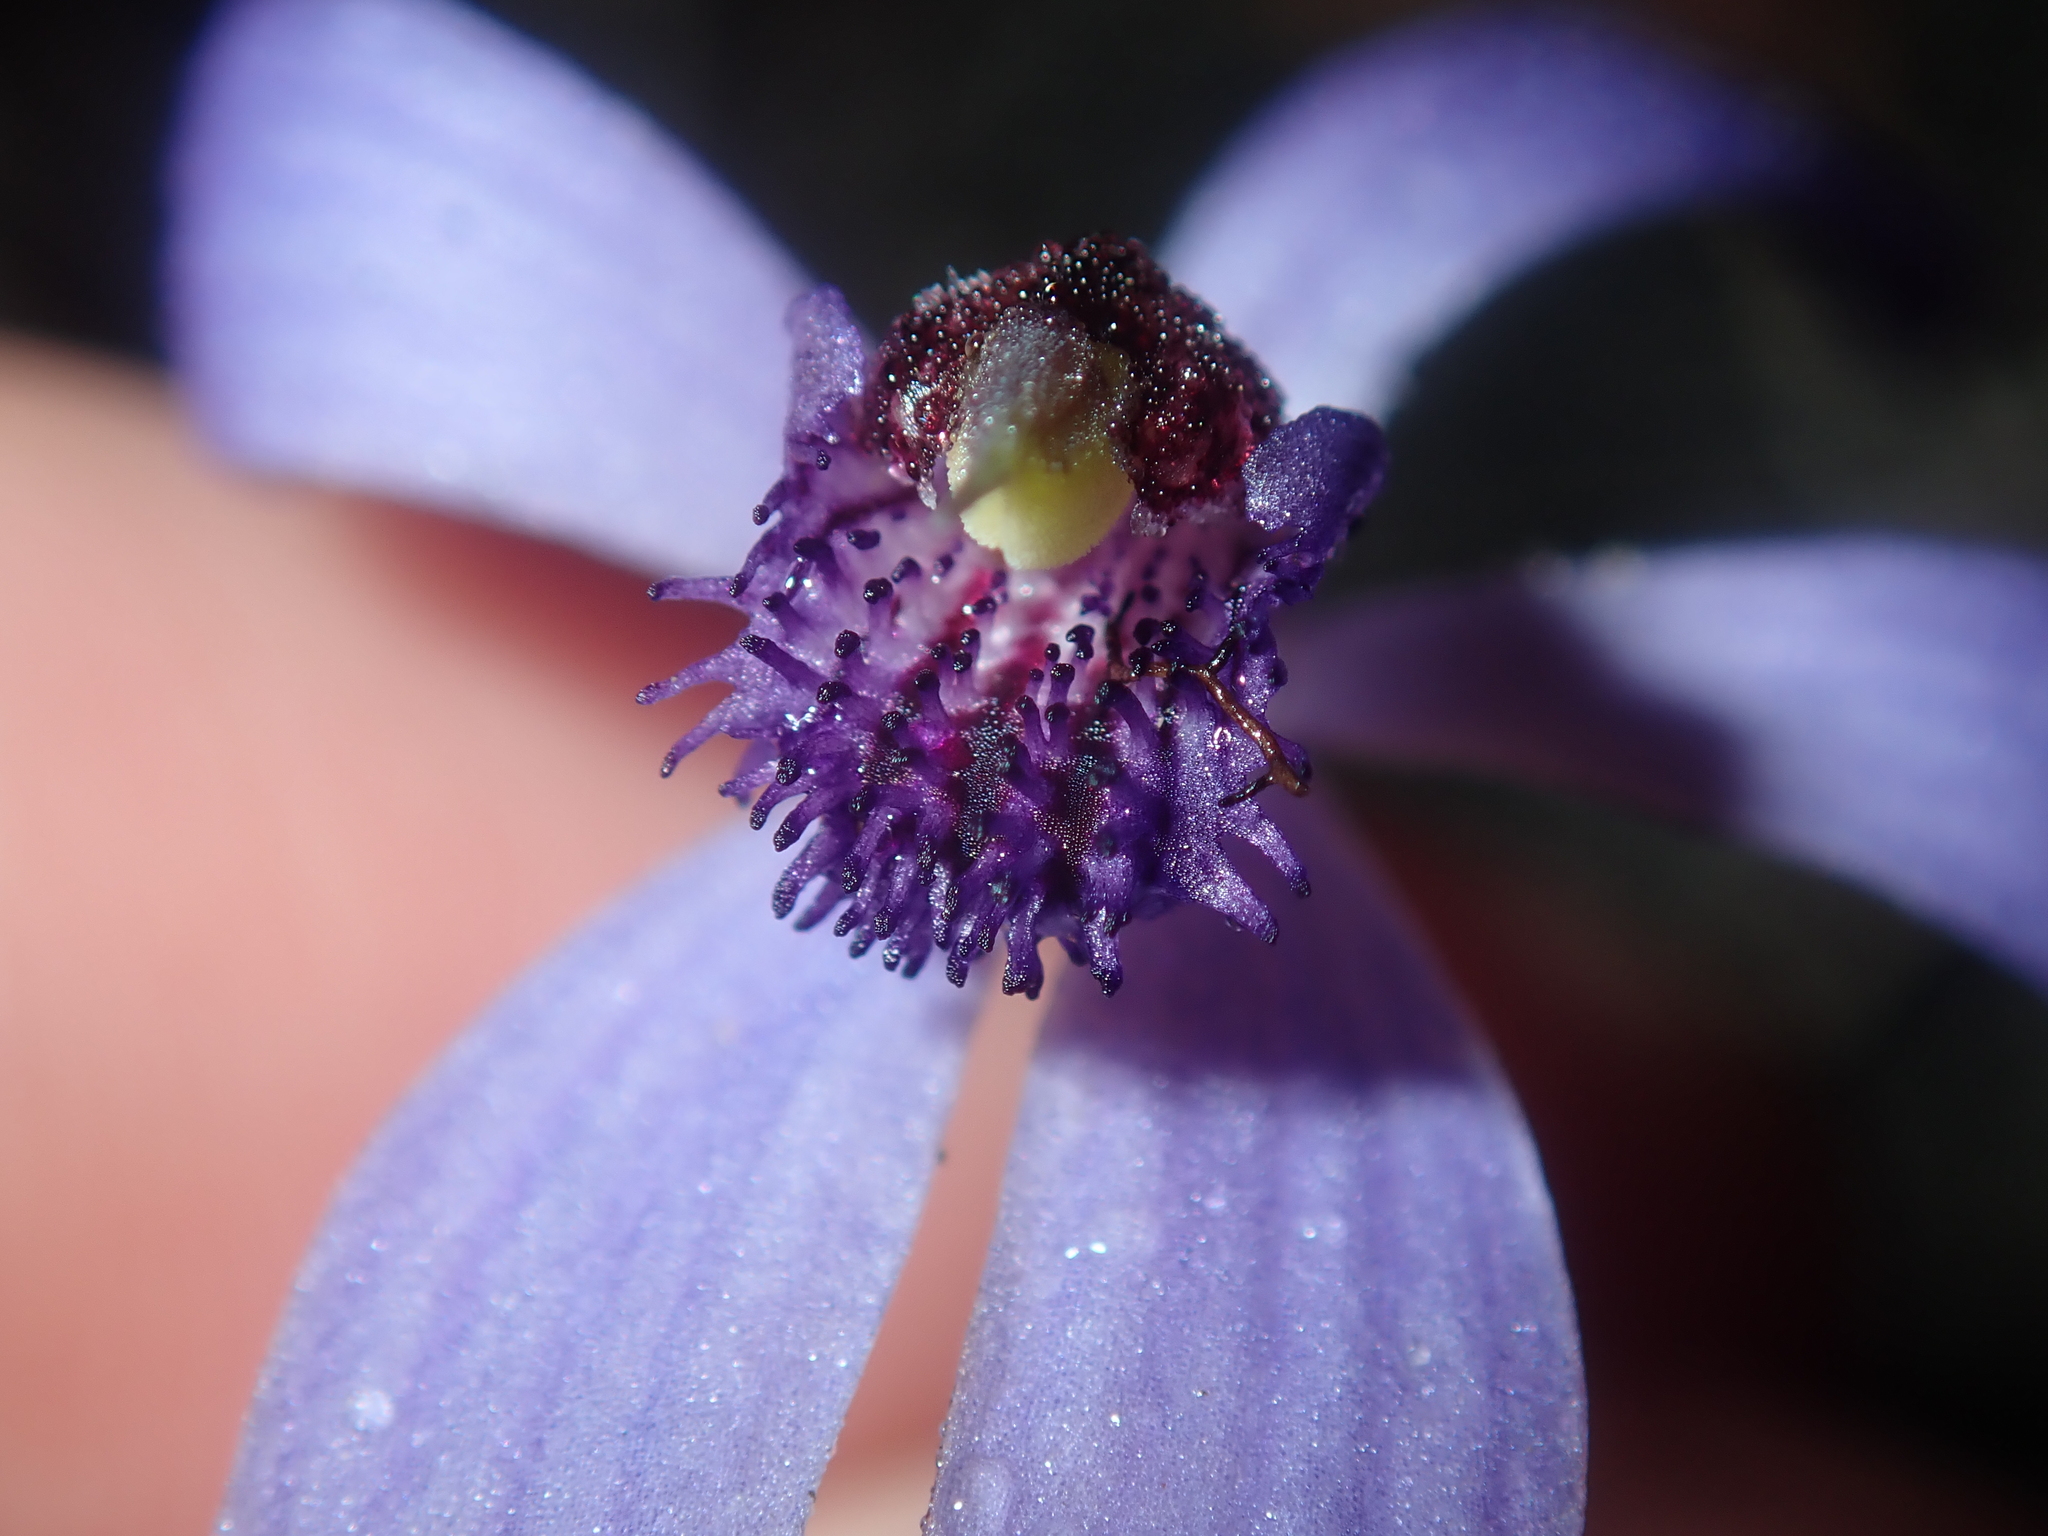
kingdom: Plantae
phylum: Tracheophyta
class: Liliopsida
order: Asparagales
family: Orchidaceae
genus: Pheladenia
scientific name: Pheladenia deformis
